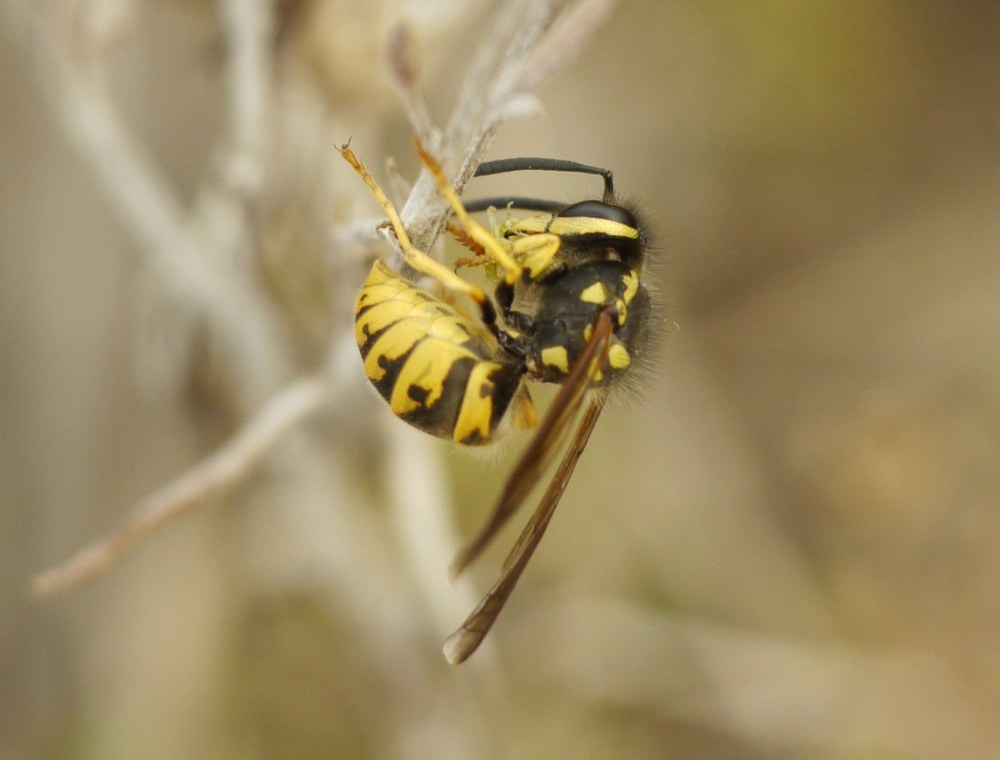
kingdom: Animalia
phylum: Arthropoda
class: Insecta
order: Hymenoptera
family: Vespidae
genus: Vespula
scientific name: Vespula germanica
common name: German wasp
